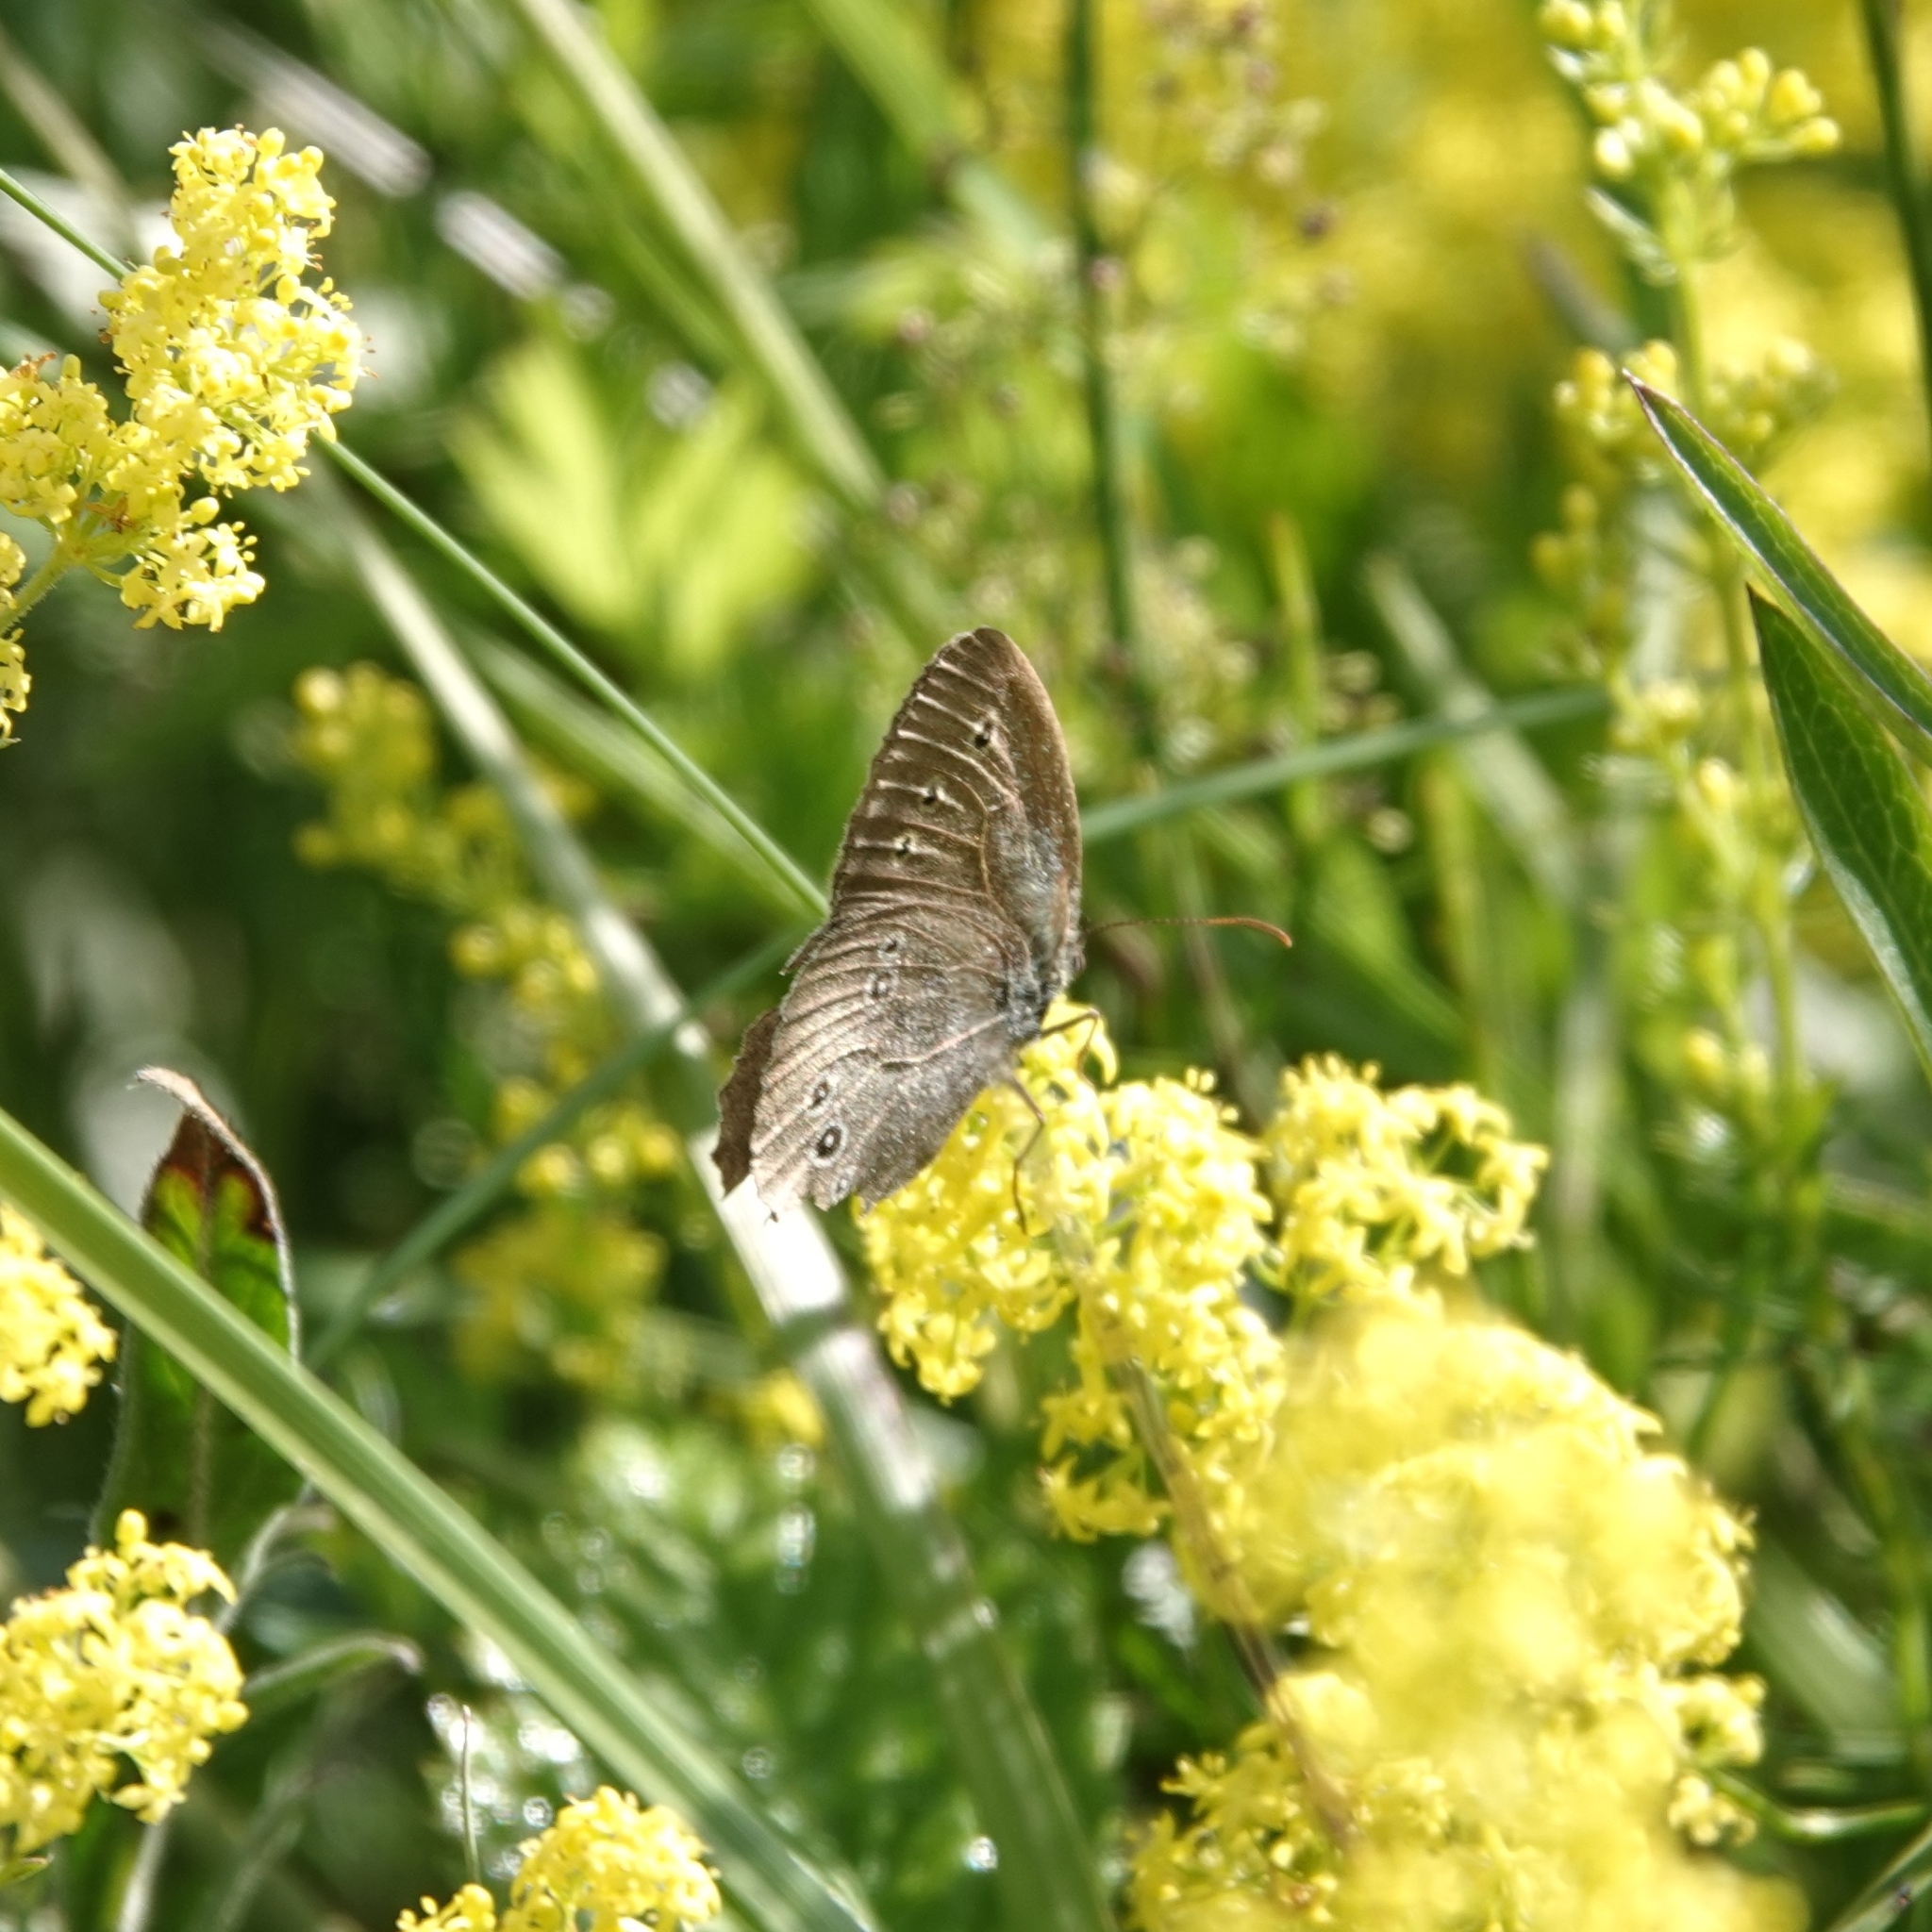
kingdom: Animalia
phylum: Arthropoda
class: Insecta
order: Lepidoptera
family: Nymphalidae
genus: Aphantopus
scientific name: Aphantopus hyperantus
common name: Ringlet
